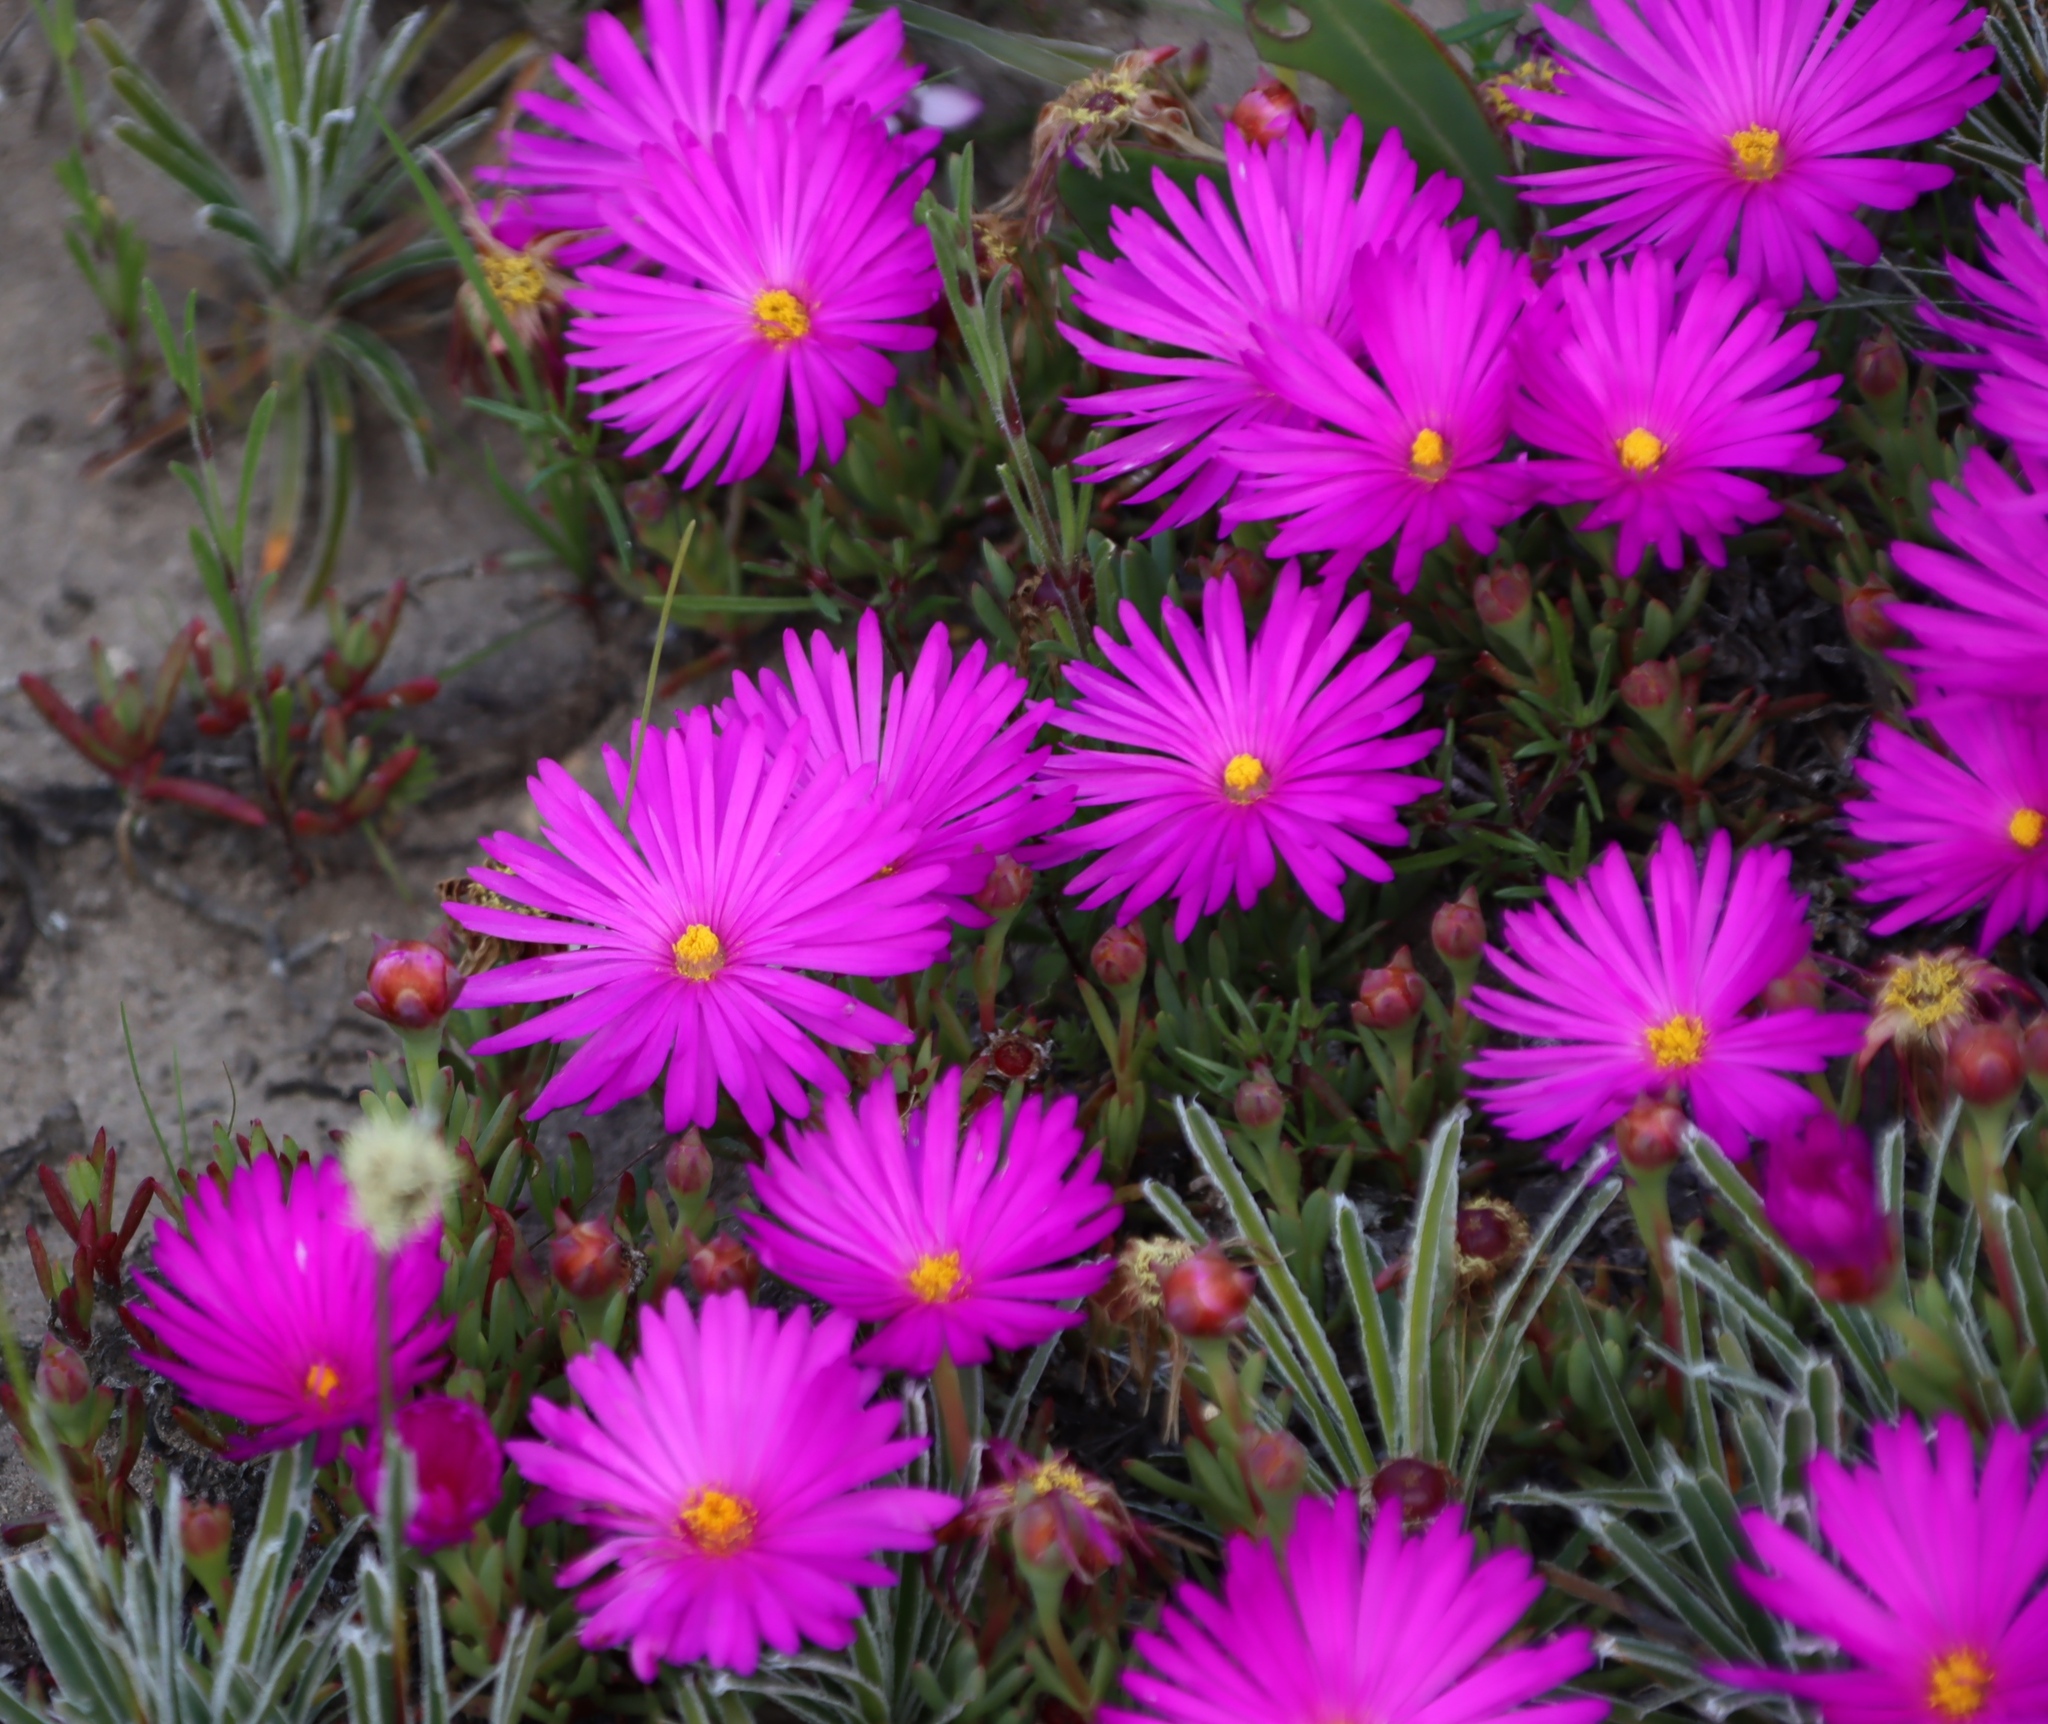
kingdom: Plantae
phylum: Tracheophyta
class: Magnoliopsida
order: Caryophyllales
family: Aizoaceae
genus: Lampranthus
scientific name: Lampranthus ceriseus
